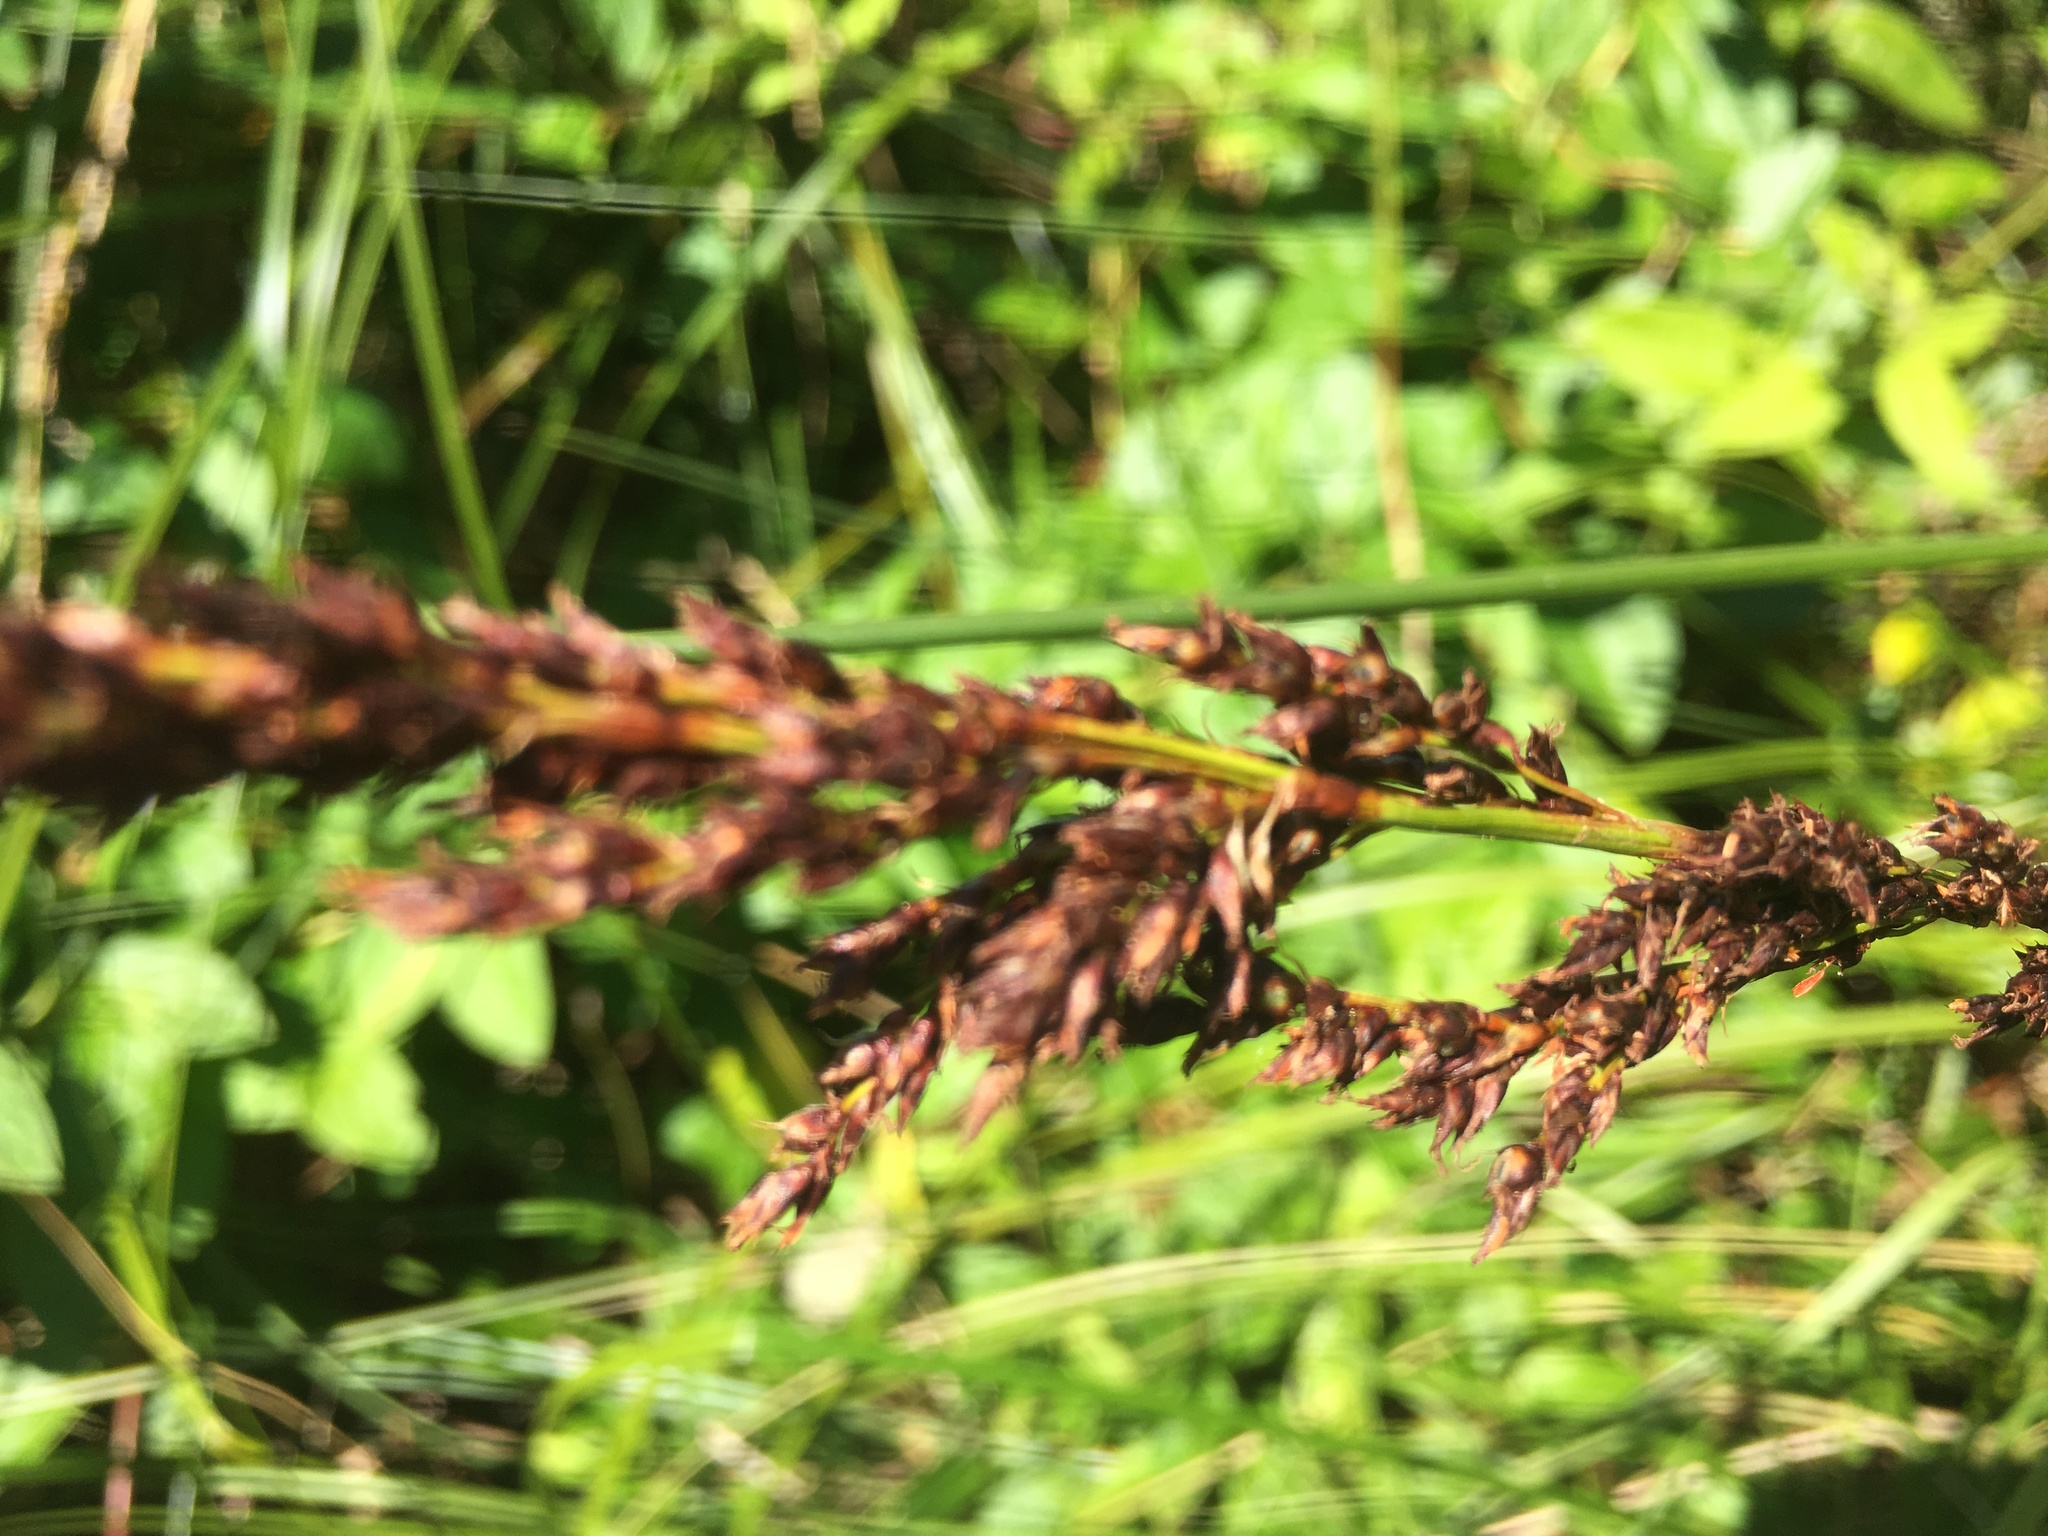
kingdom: Plantae
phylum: Tracheophyta
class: Liliopsida
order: Poales
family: Cyperaceae
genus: Machaerina
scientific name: Machaerina teretifolia
